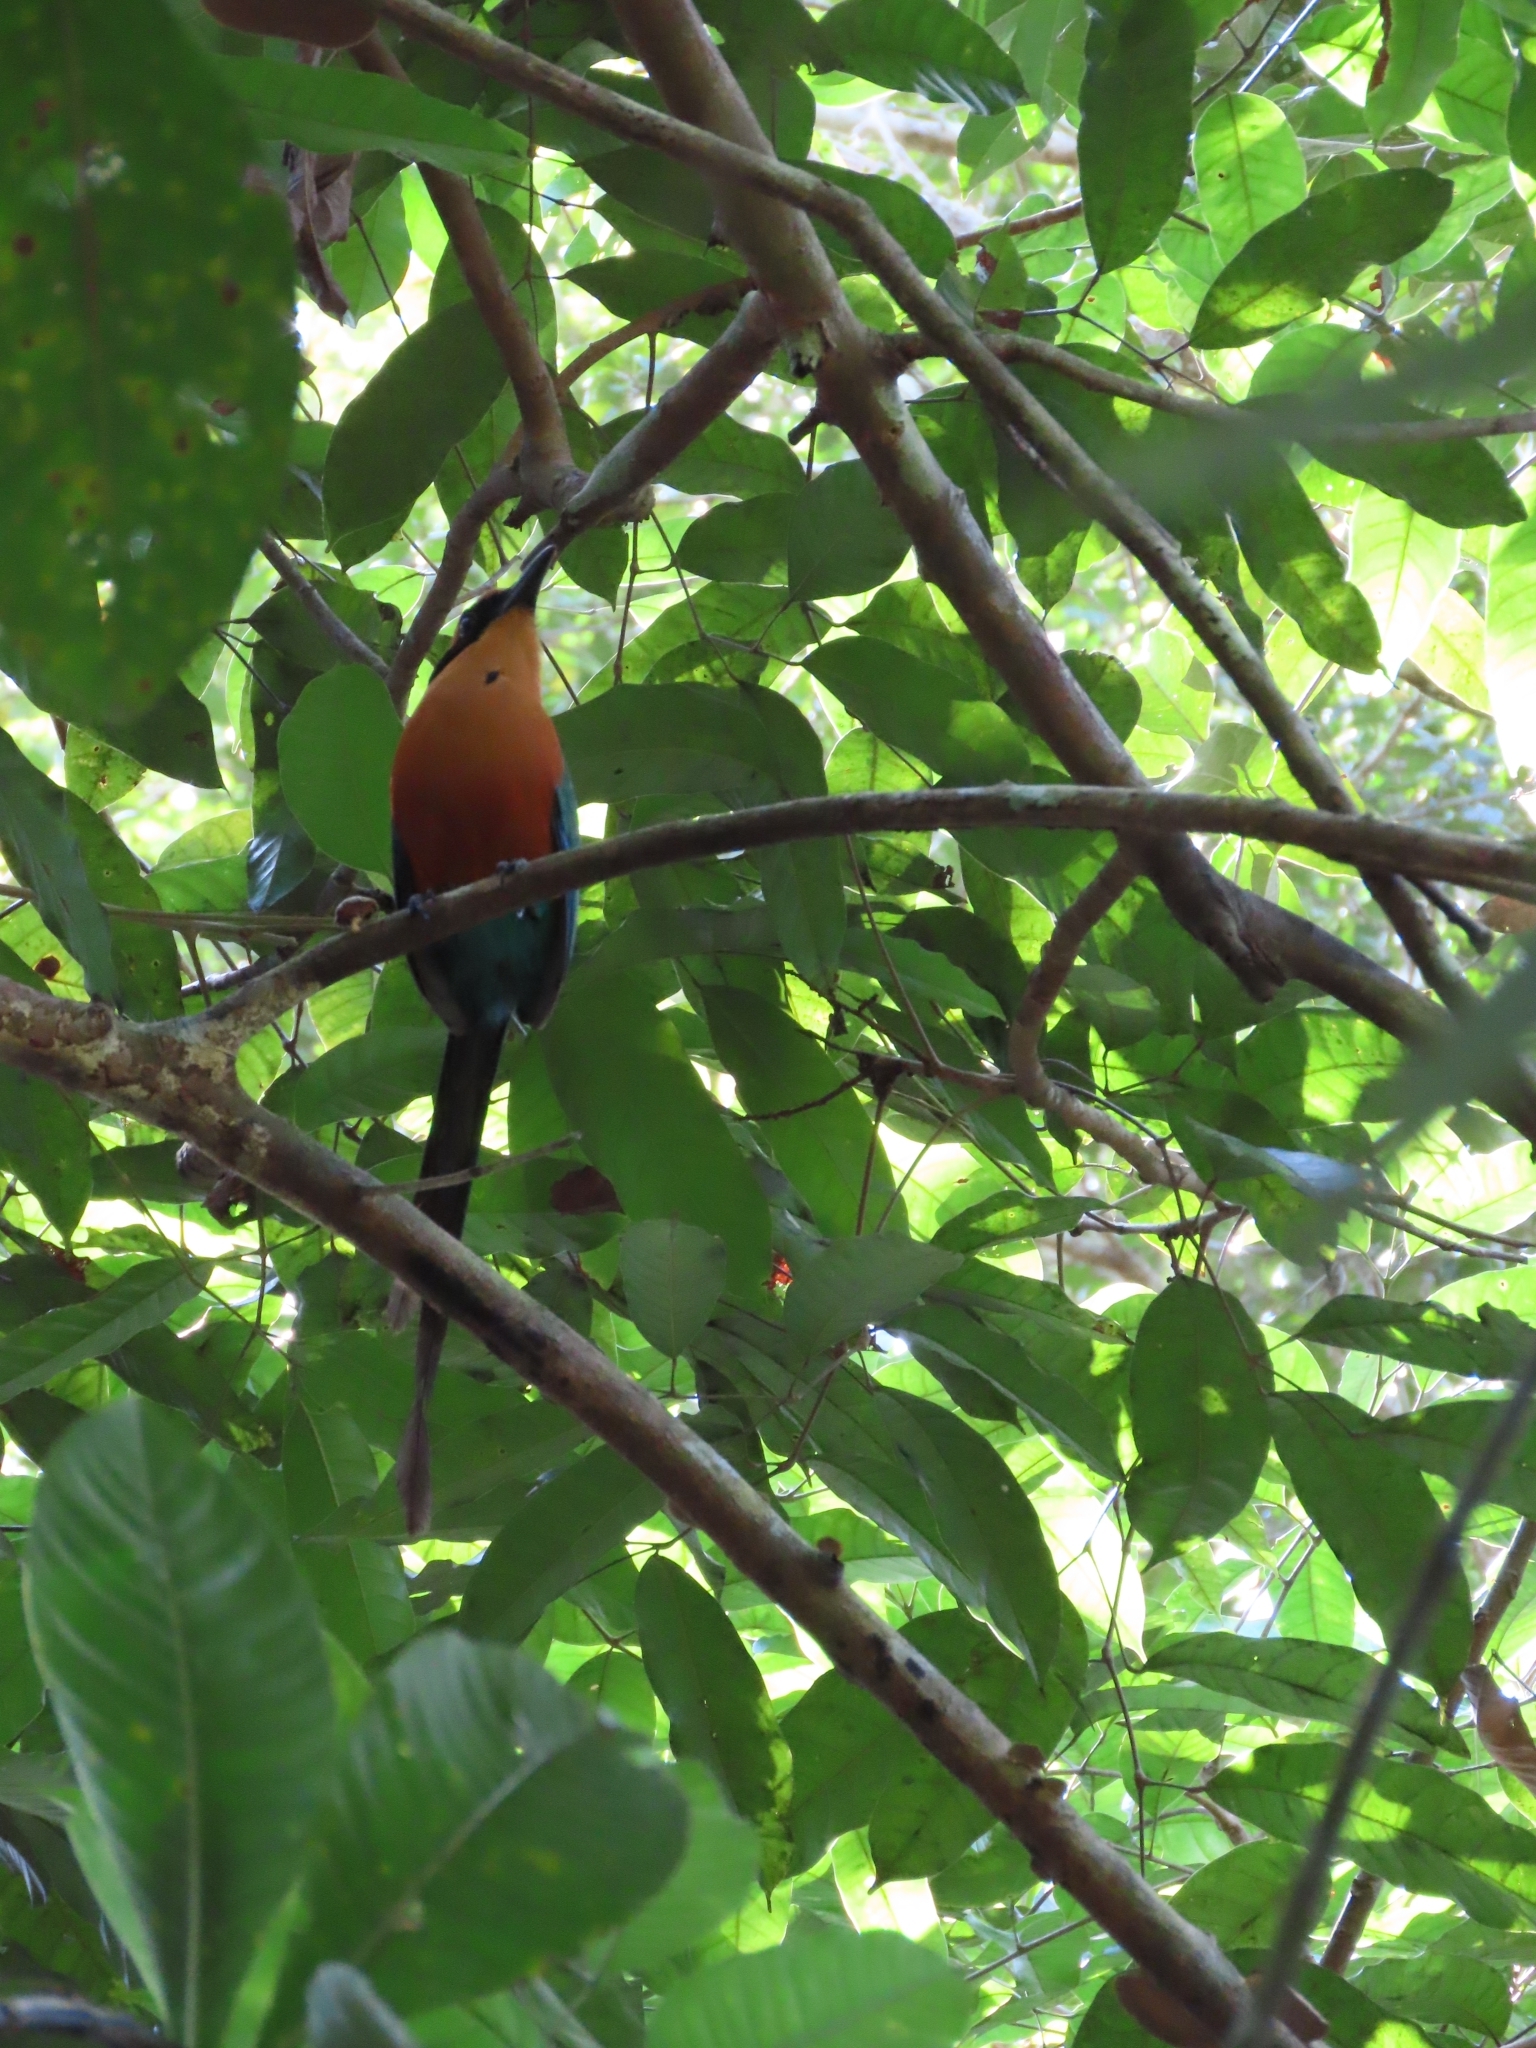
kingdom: Animalia
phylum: Chordata
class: Aves
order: Coraciiformes
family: Momotidae
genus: Baryphthengus
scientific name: Baryphthengus martii
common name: Rufous motmot
